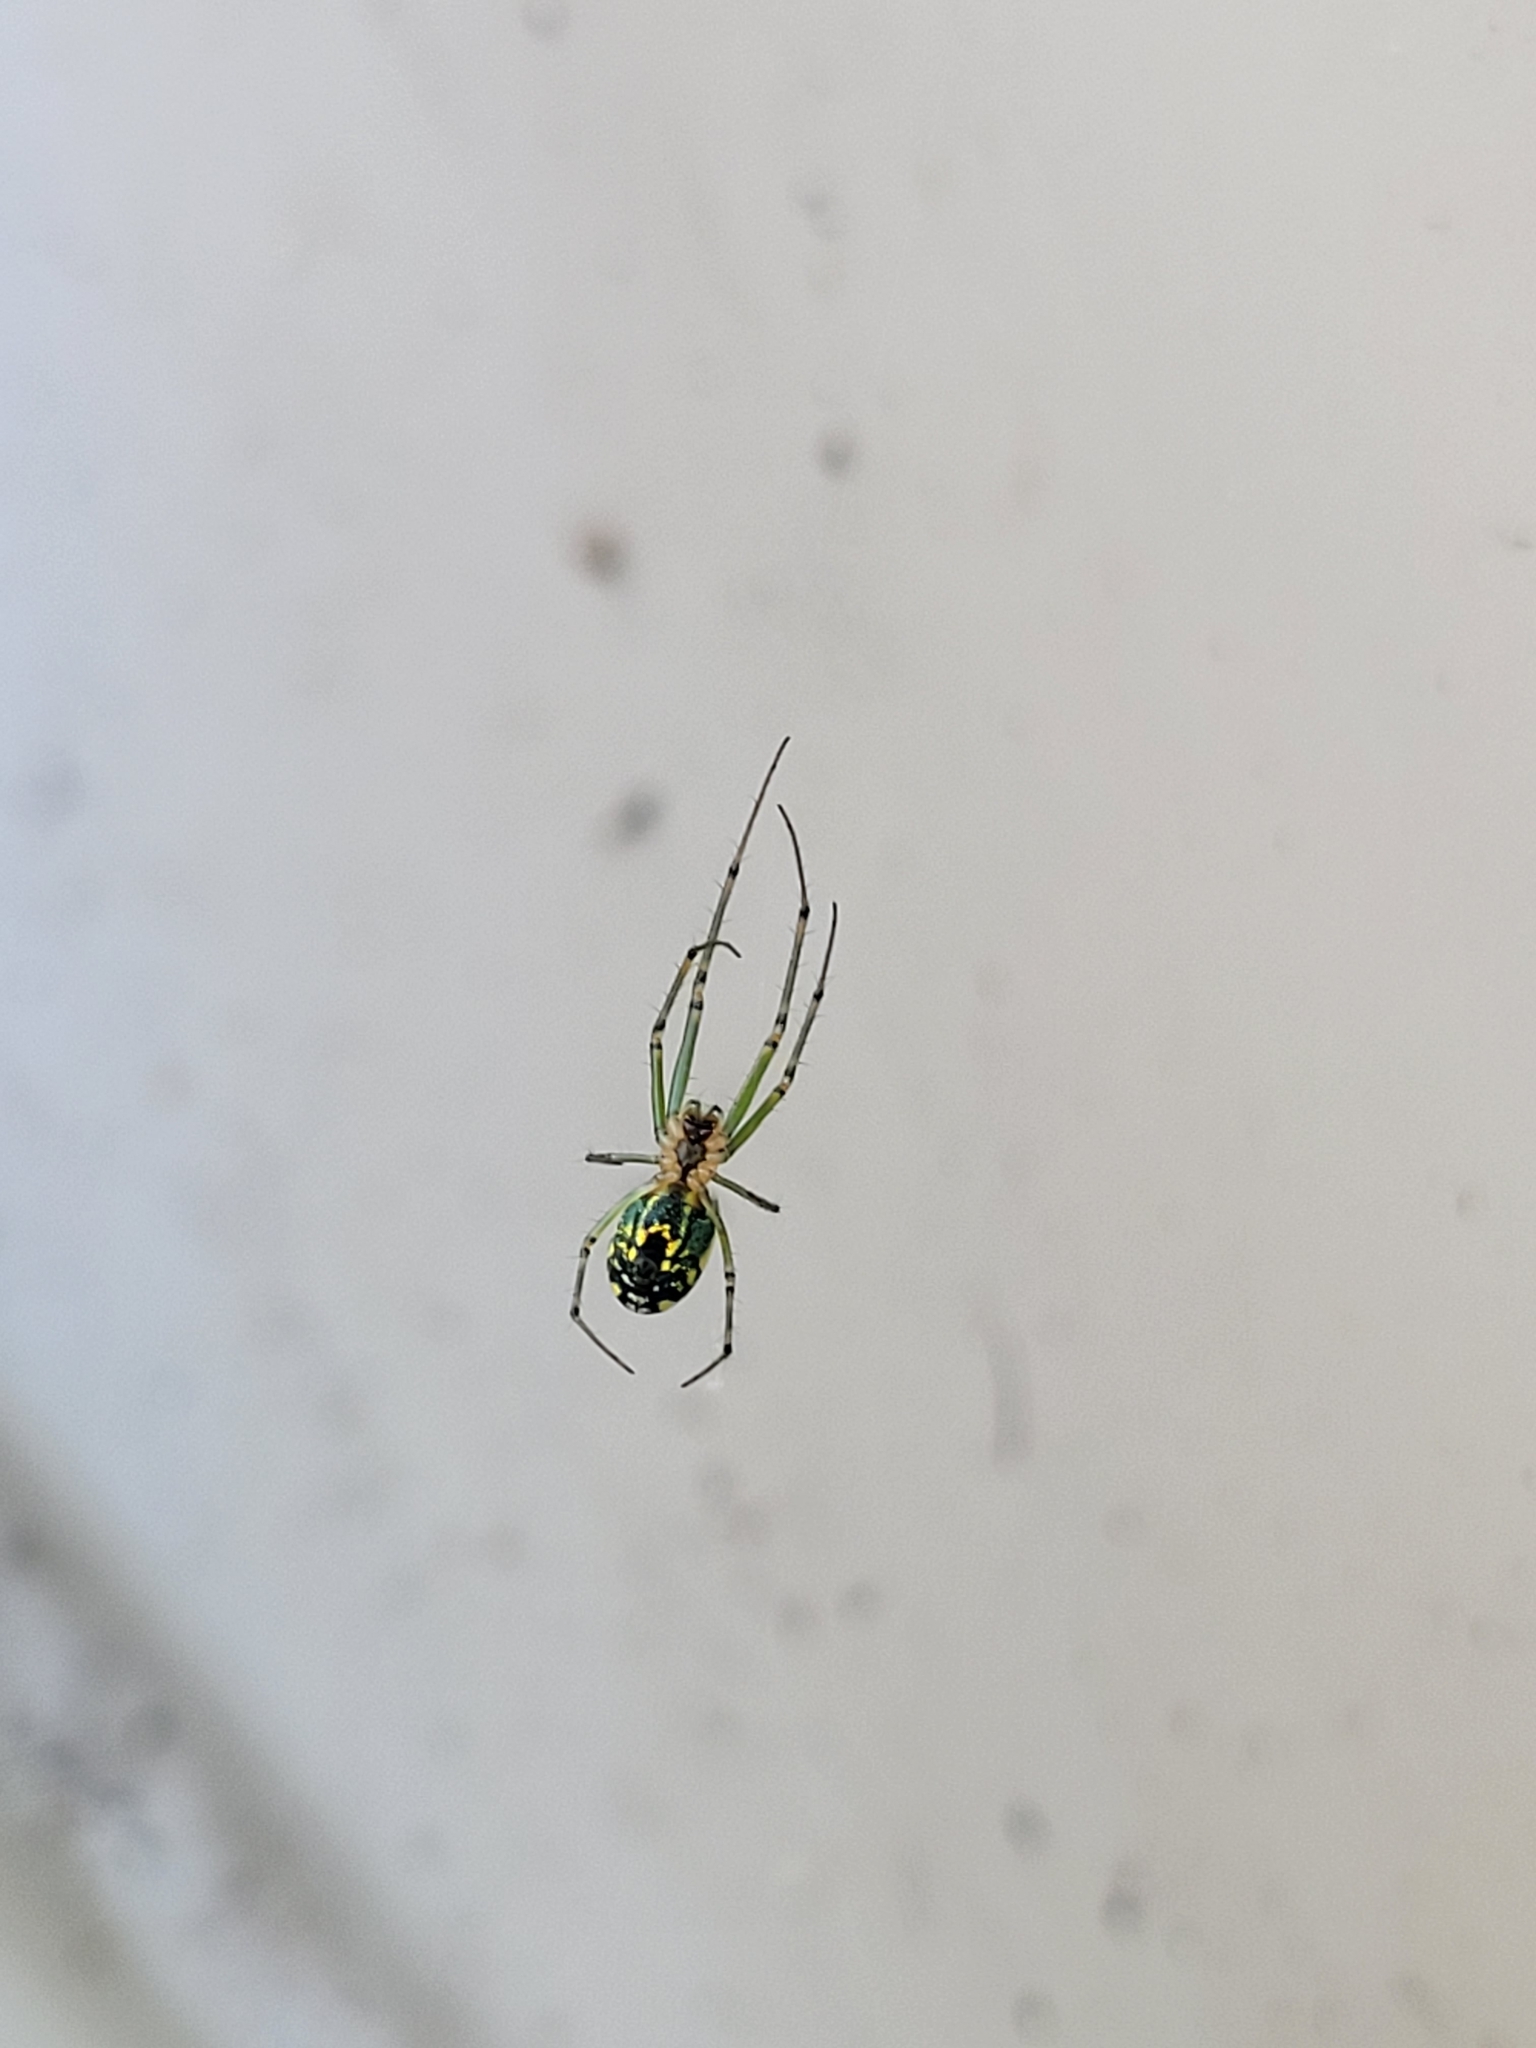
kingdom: Animalia
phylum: Arthropoda
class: Arachnida
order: Araneae
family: Tetragnathidae
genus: Leucauge
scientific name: Leucauge venusta
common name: Longjawed orb weavers
